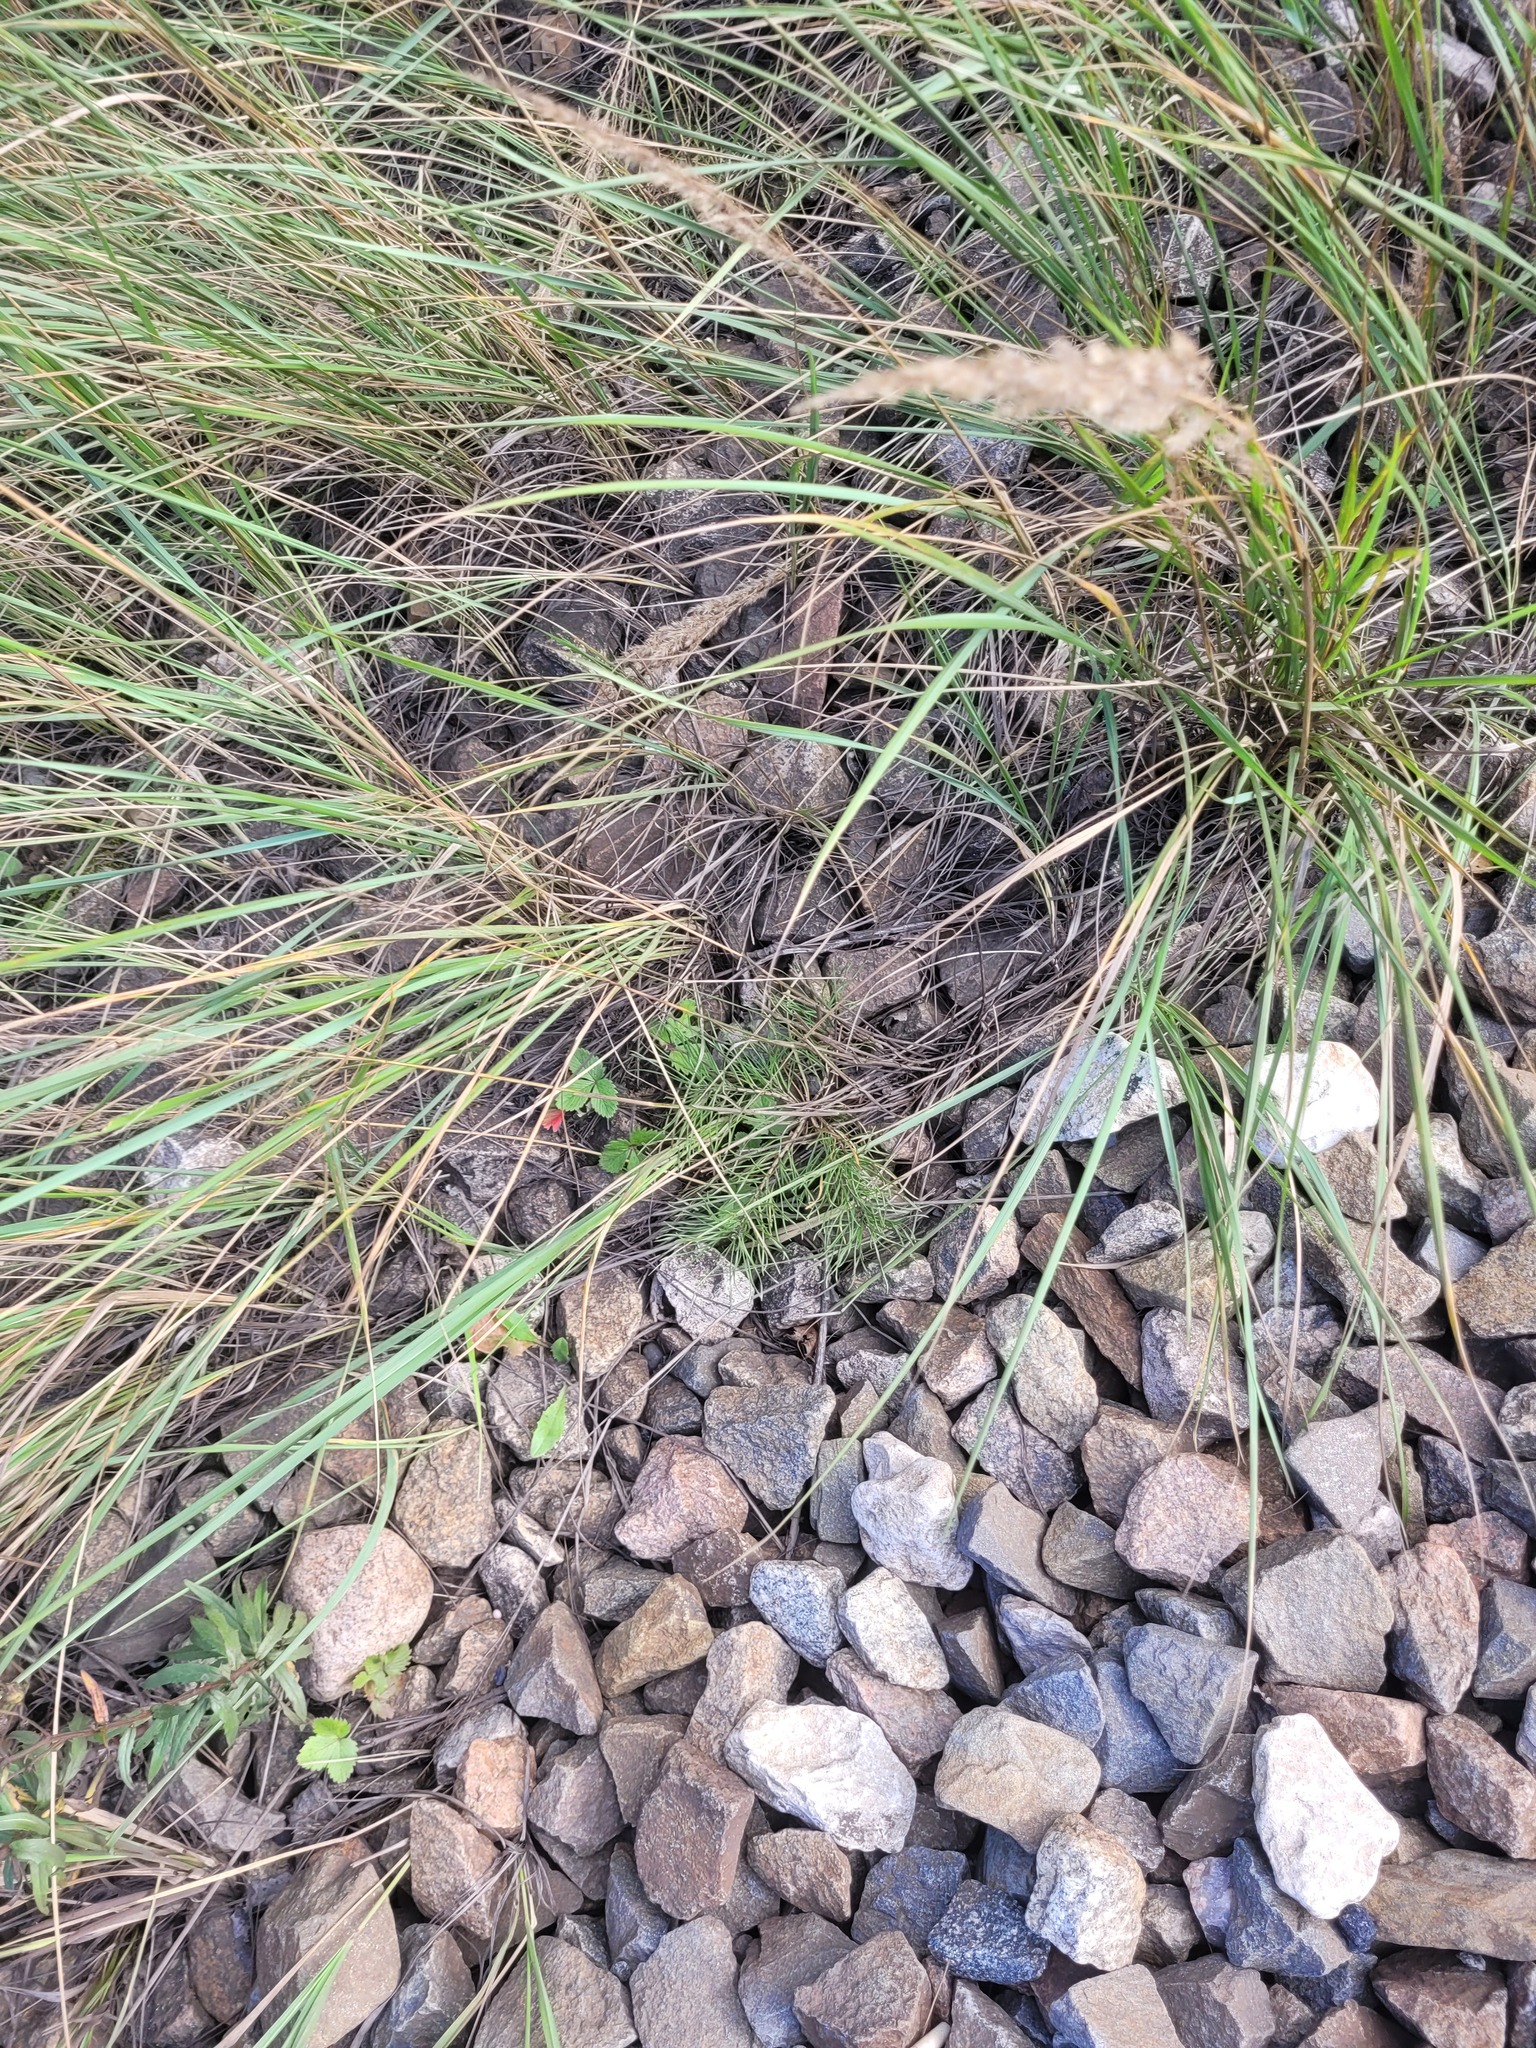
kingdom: Plantae
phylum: Tracheophyta
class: Pinopsida
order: Pinales
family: Pinaceae
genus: Pinus
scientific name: Pinus sylvestris
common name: Scots pine
